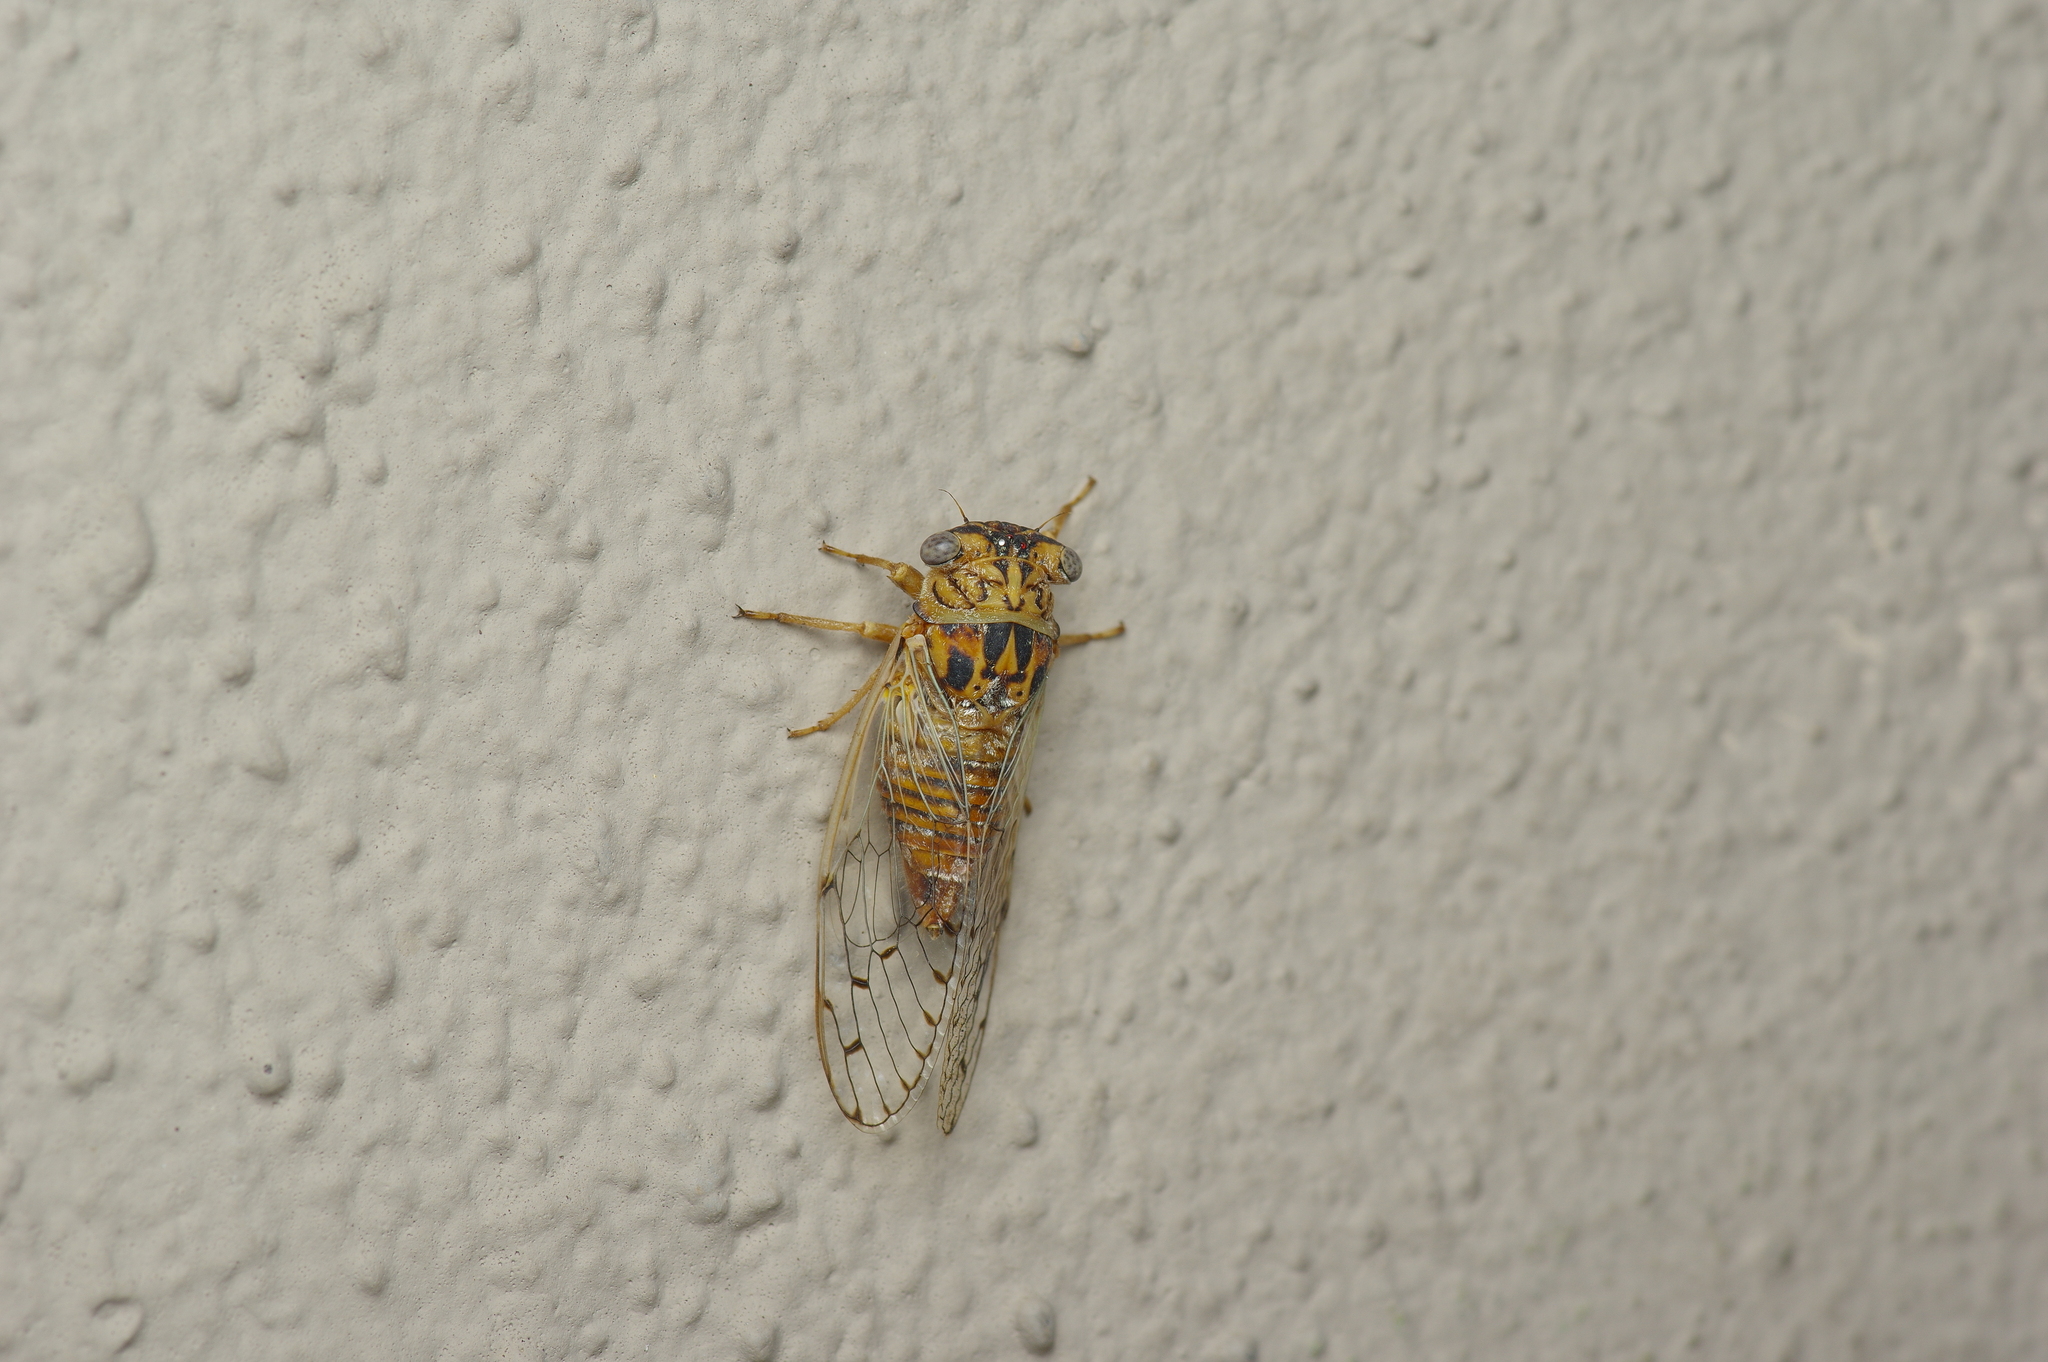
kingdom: Animalia
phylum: Arthropoda
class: Insecta
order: Hemiptera
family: Cicadidae
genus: Pacarina
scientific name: Pacarina puella
